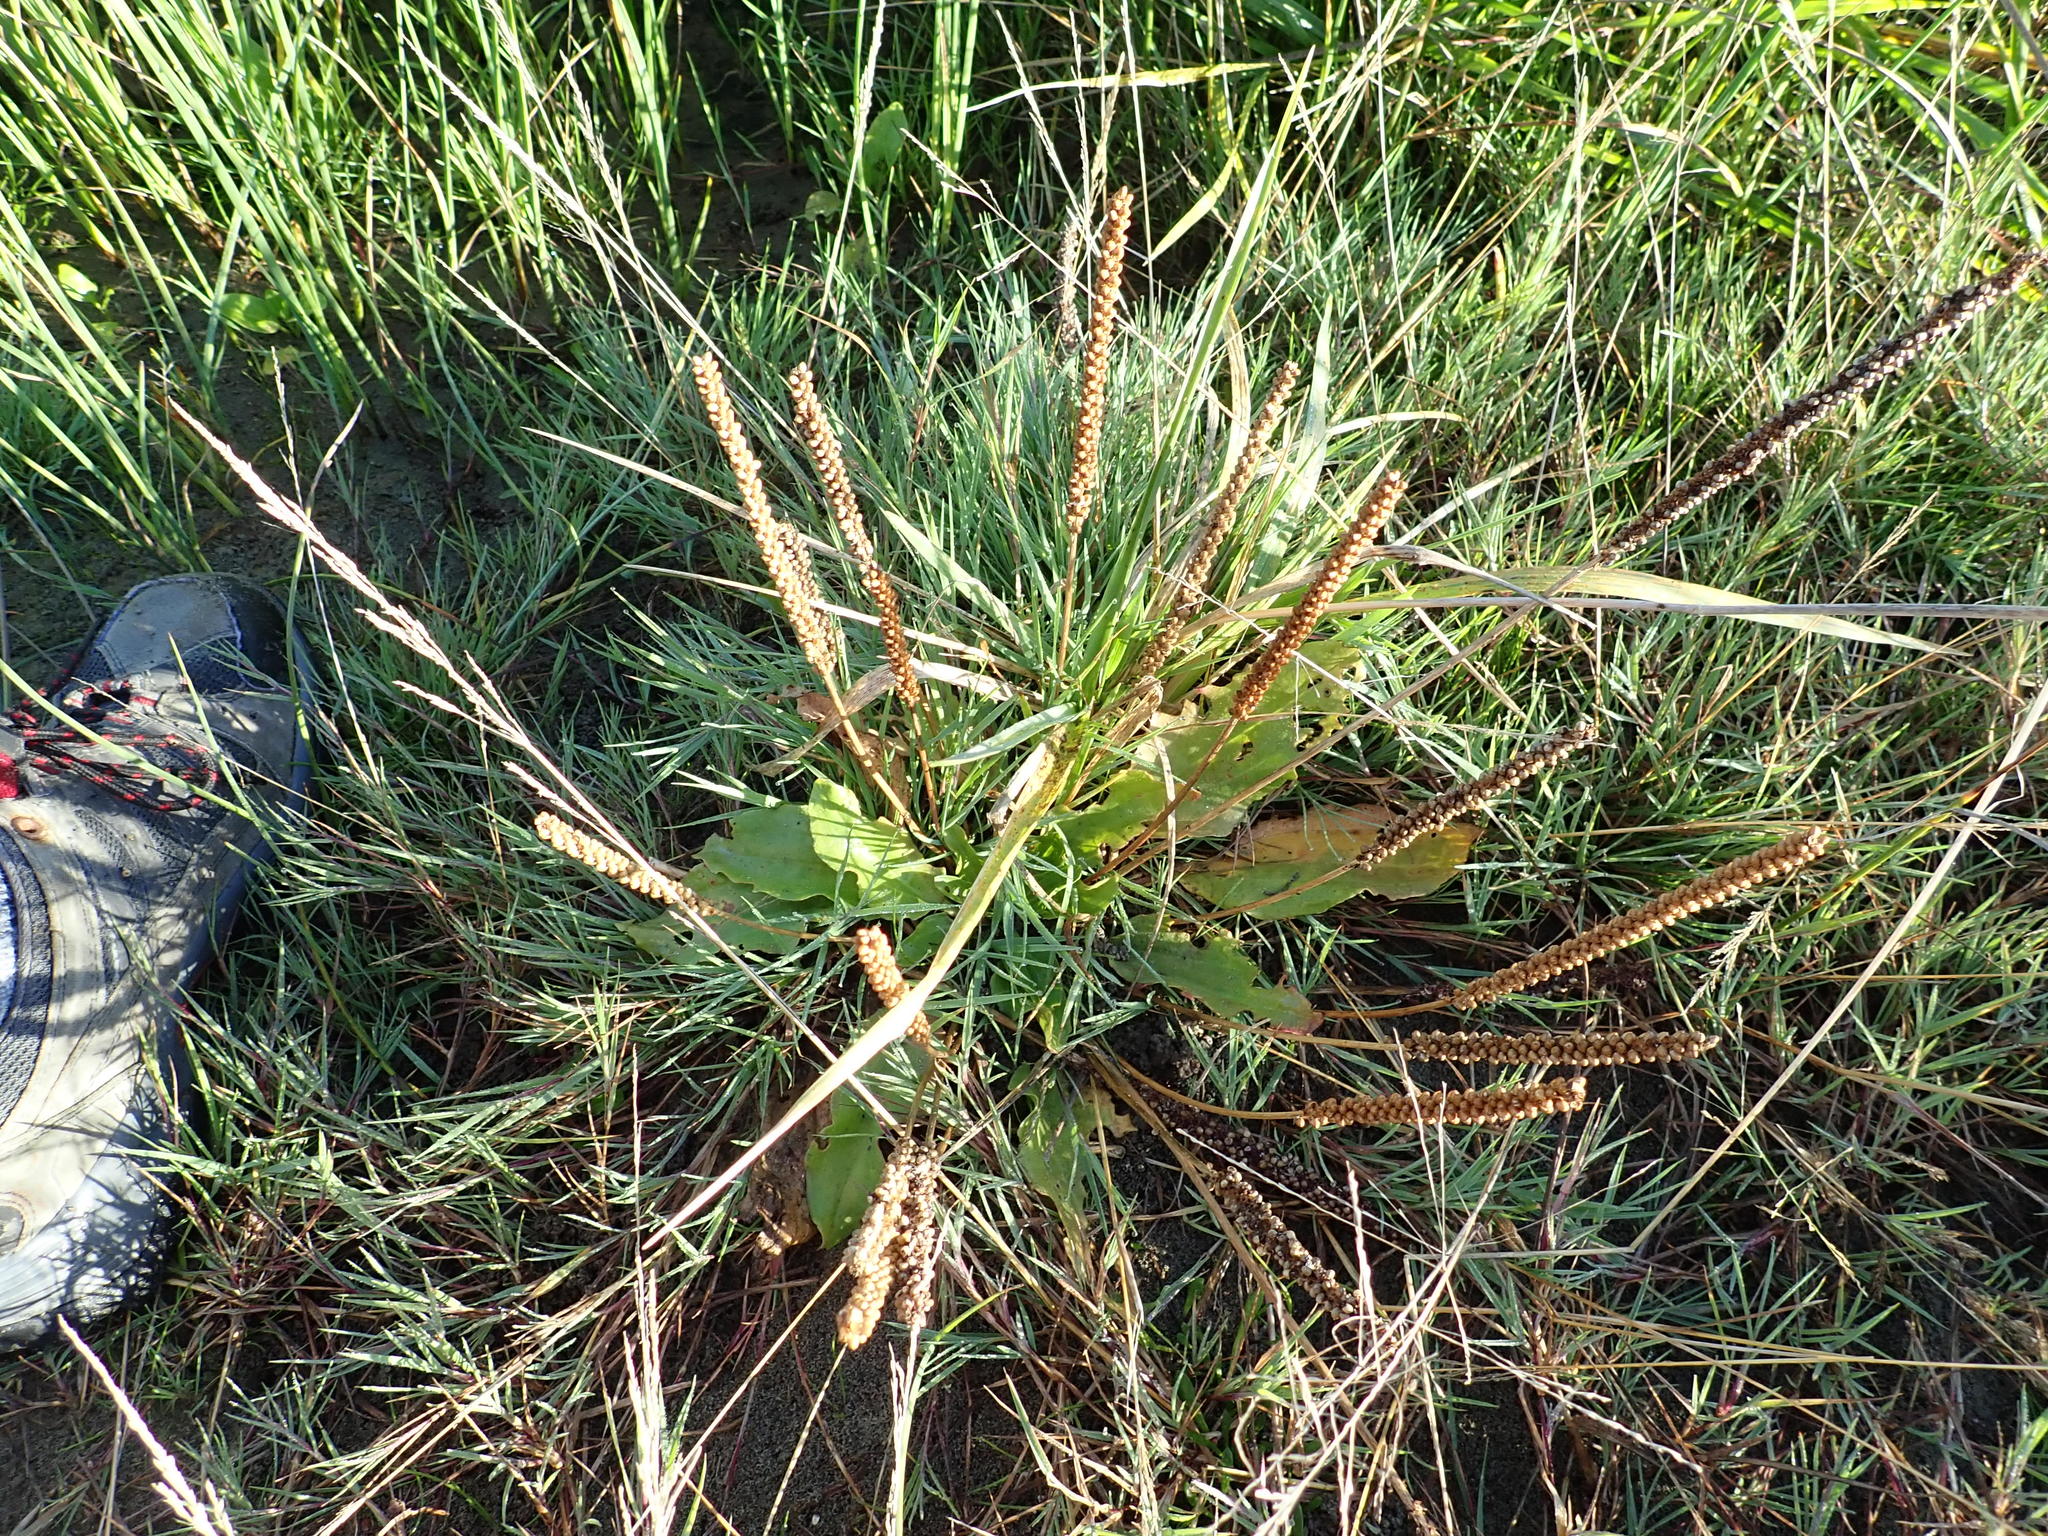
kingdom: Plantae
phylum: Tracheophyta
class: Magnoliopsida
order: Lamiales
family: Plantaginaceae
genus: Plantago
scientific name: Plantago australis
